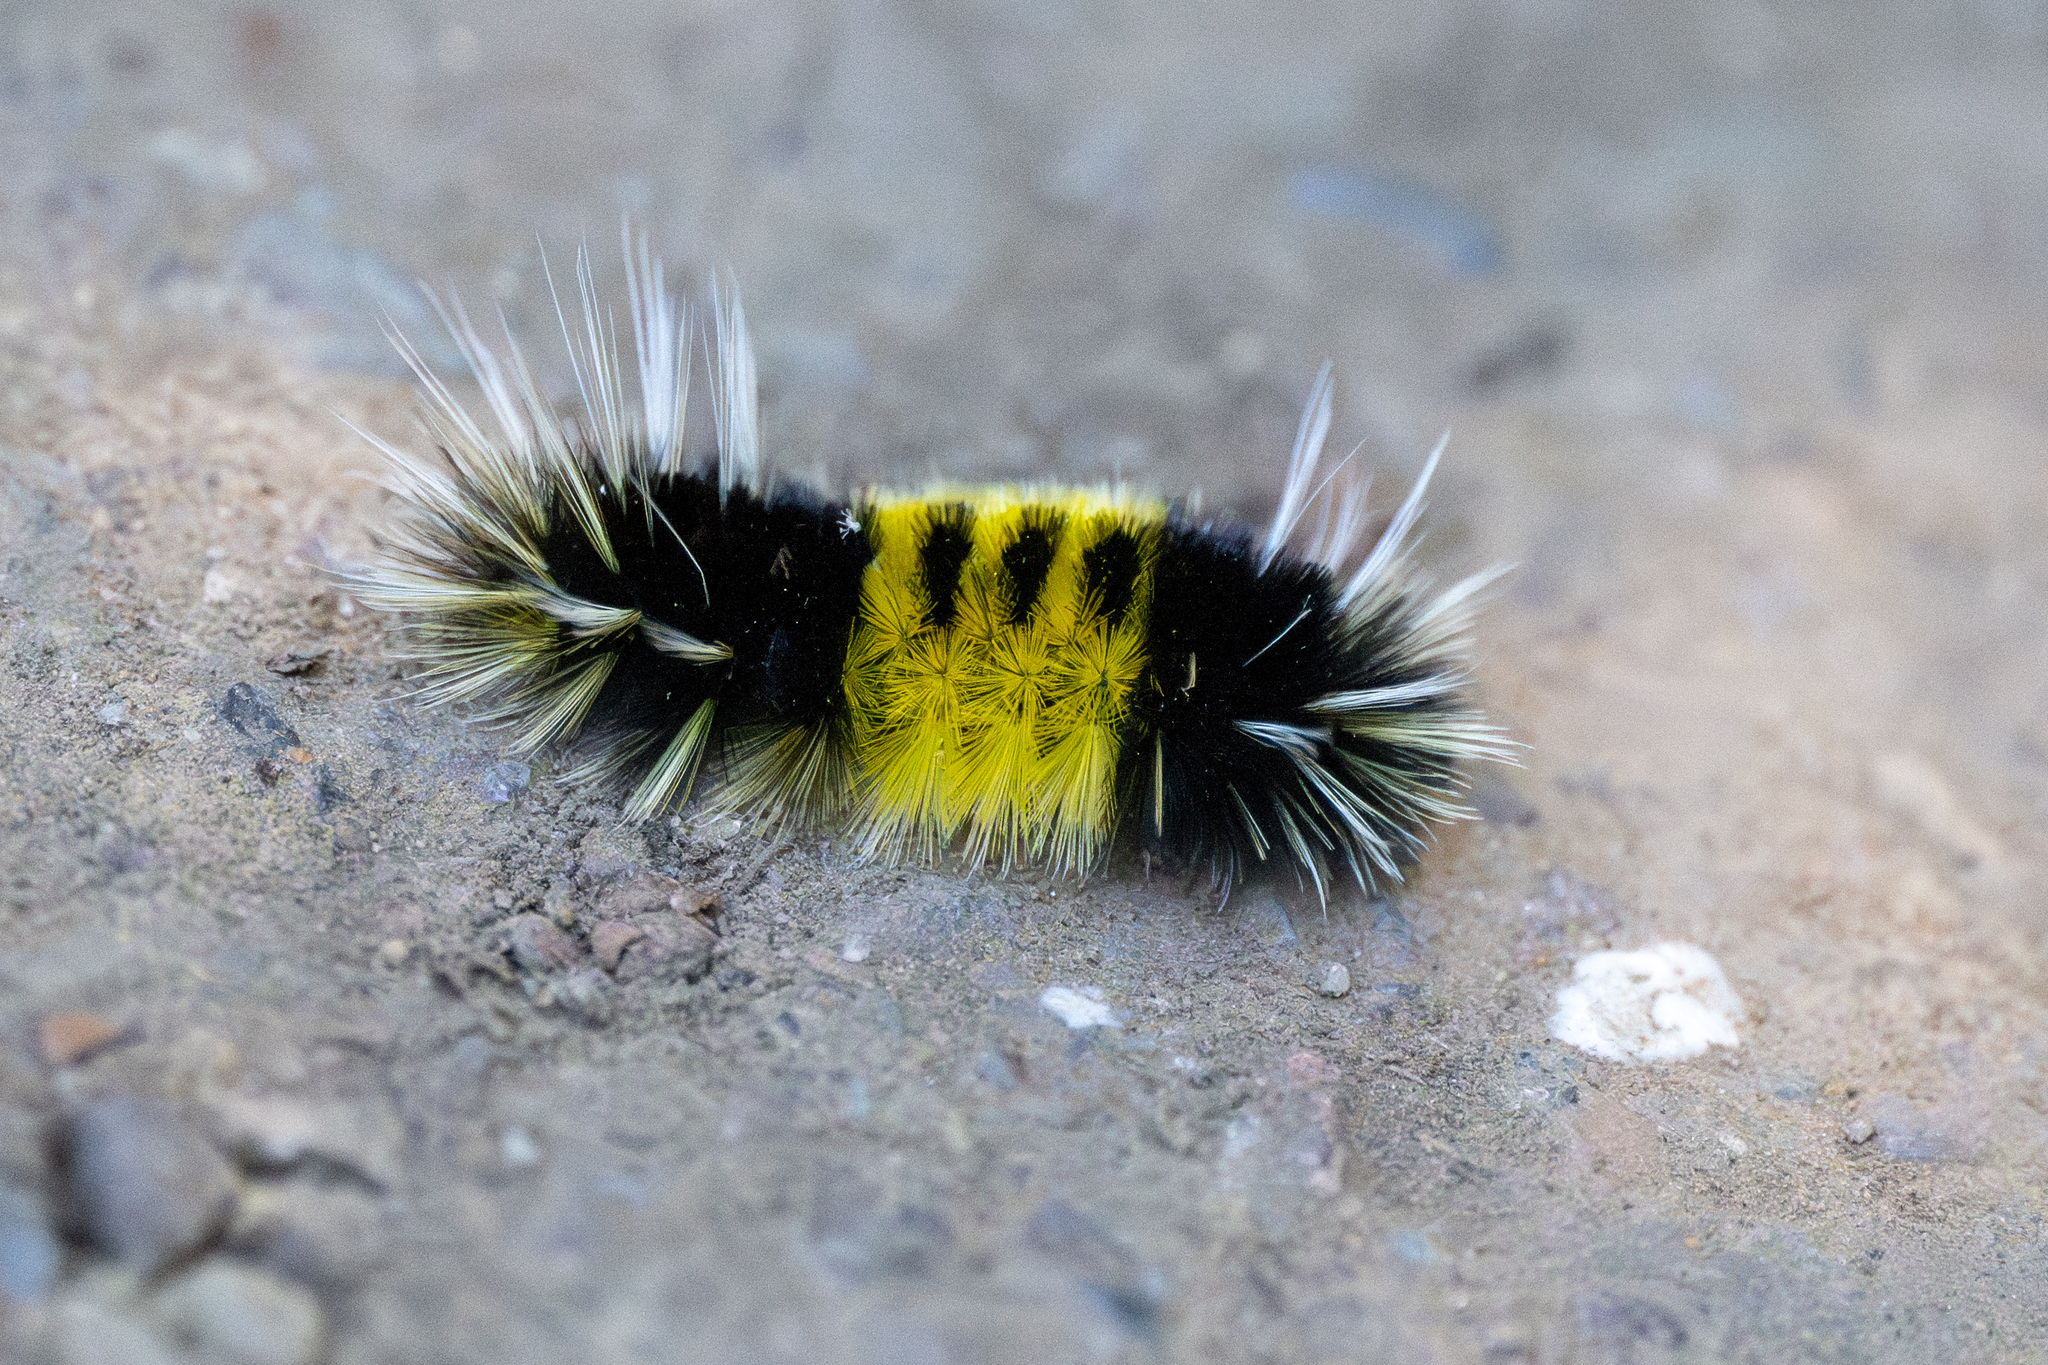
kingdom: Animalia
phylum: Arthropoda
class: Insecta
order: Lepidoptera
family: Erebidae
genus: Lophocampa
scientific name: Lophocampa maculata
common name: Spotted tussock moth
